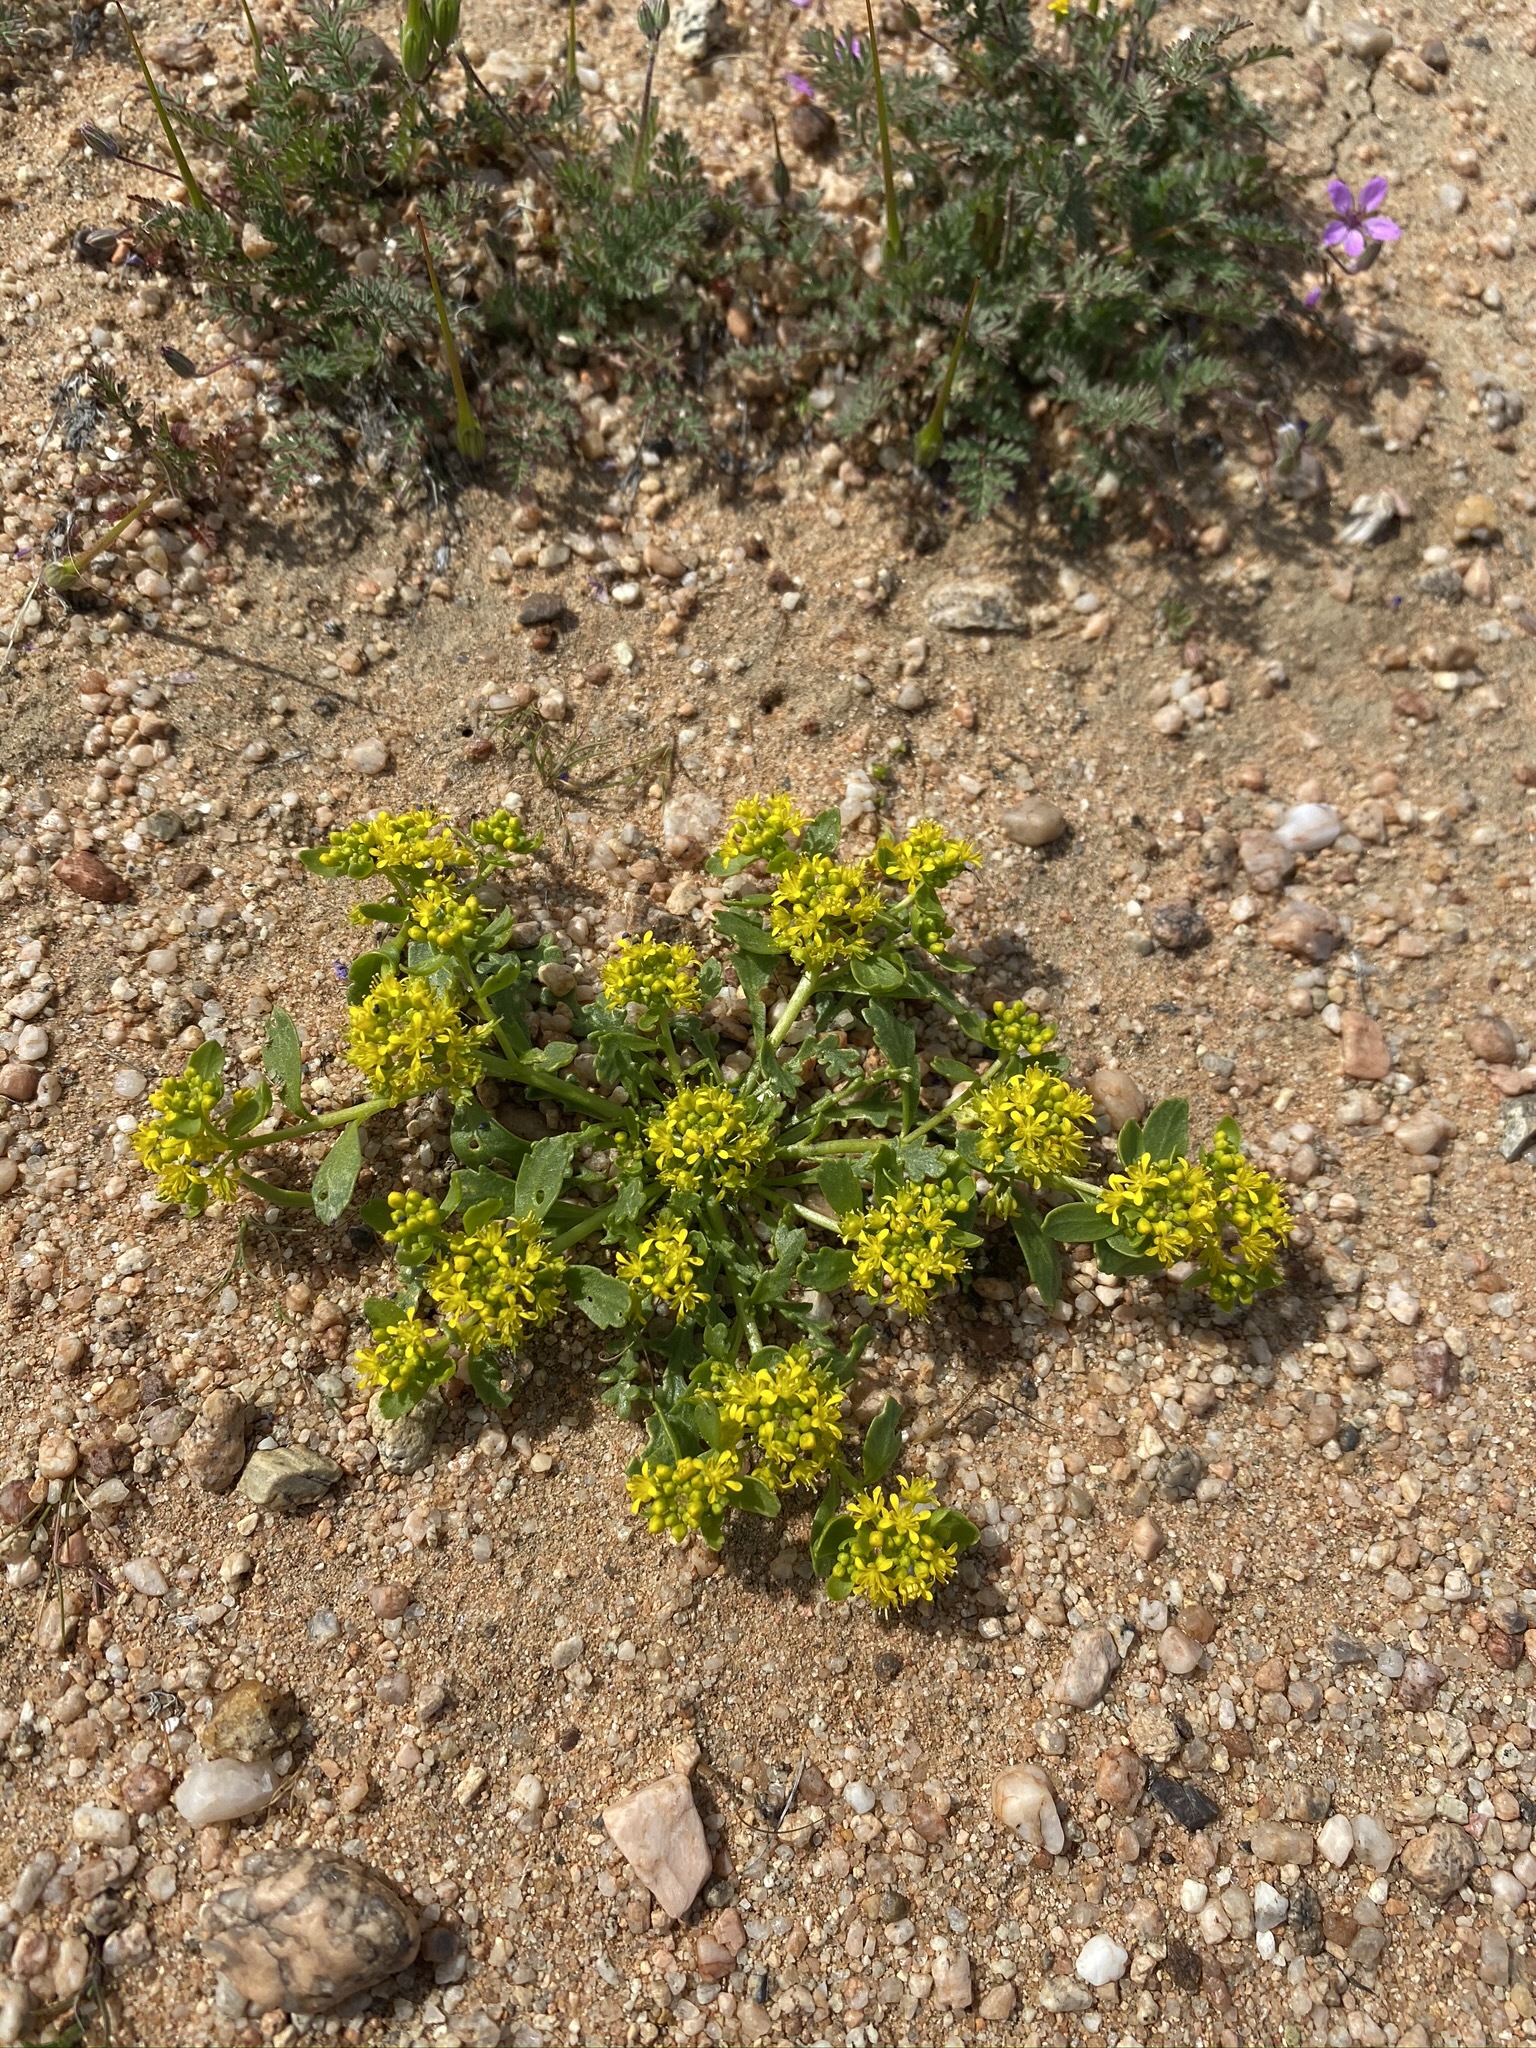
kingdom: Plantae
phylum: Tracheophyta
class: Magnoliopsida
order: Brassicales
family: Brassicaceae
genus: Lepidium
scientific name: Lepidium flavum
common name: Yellow pepperwort
